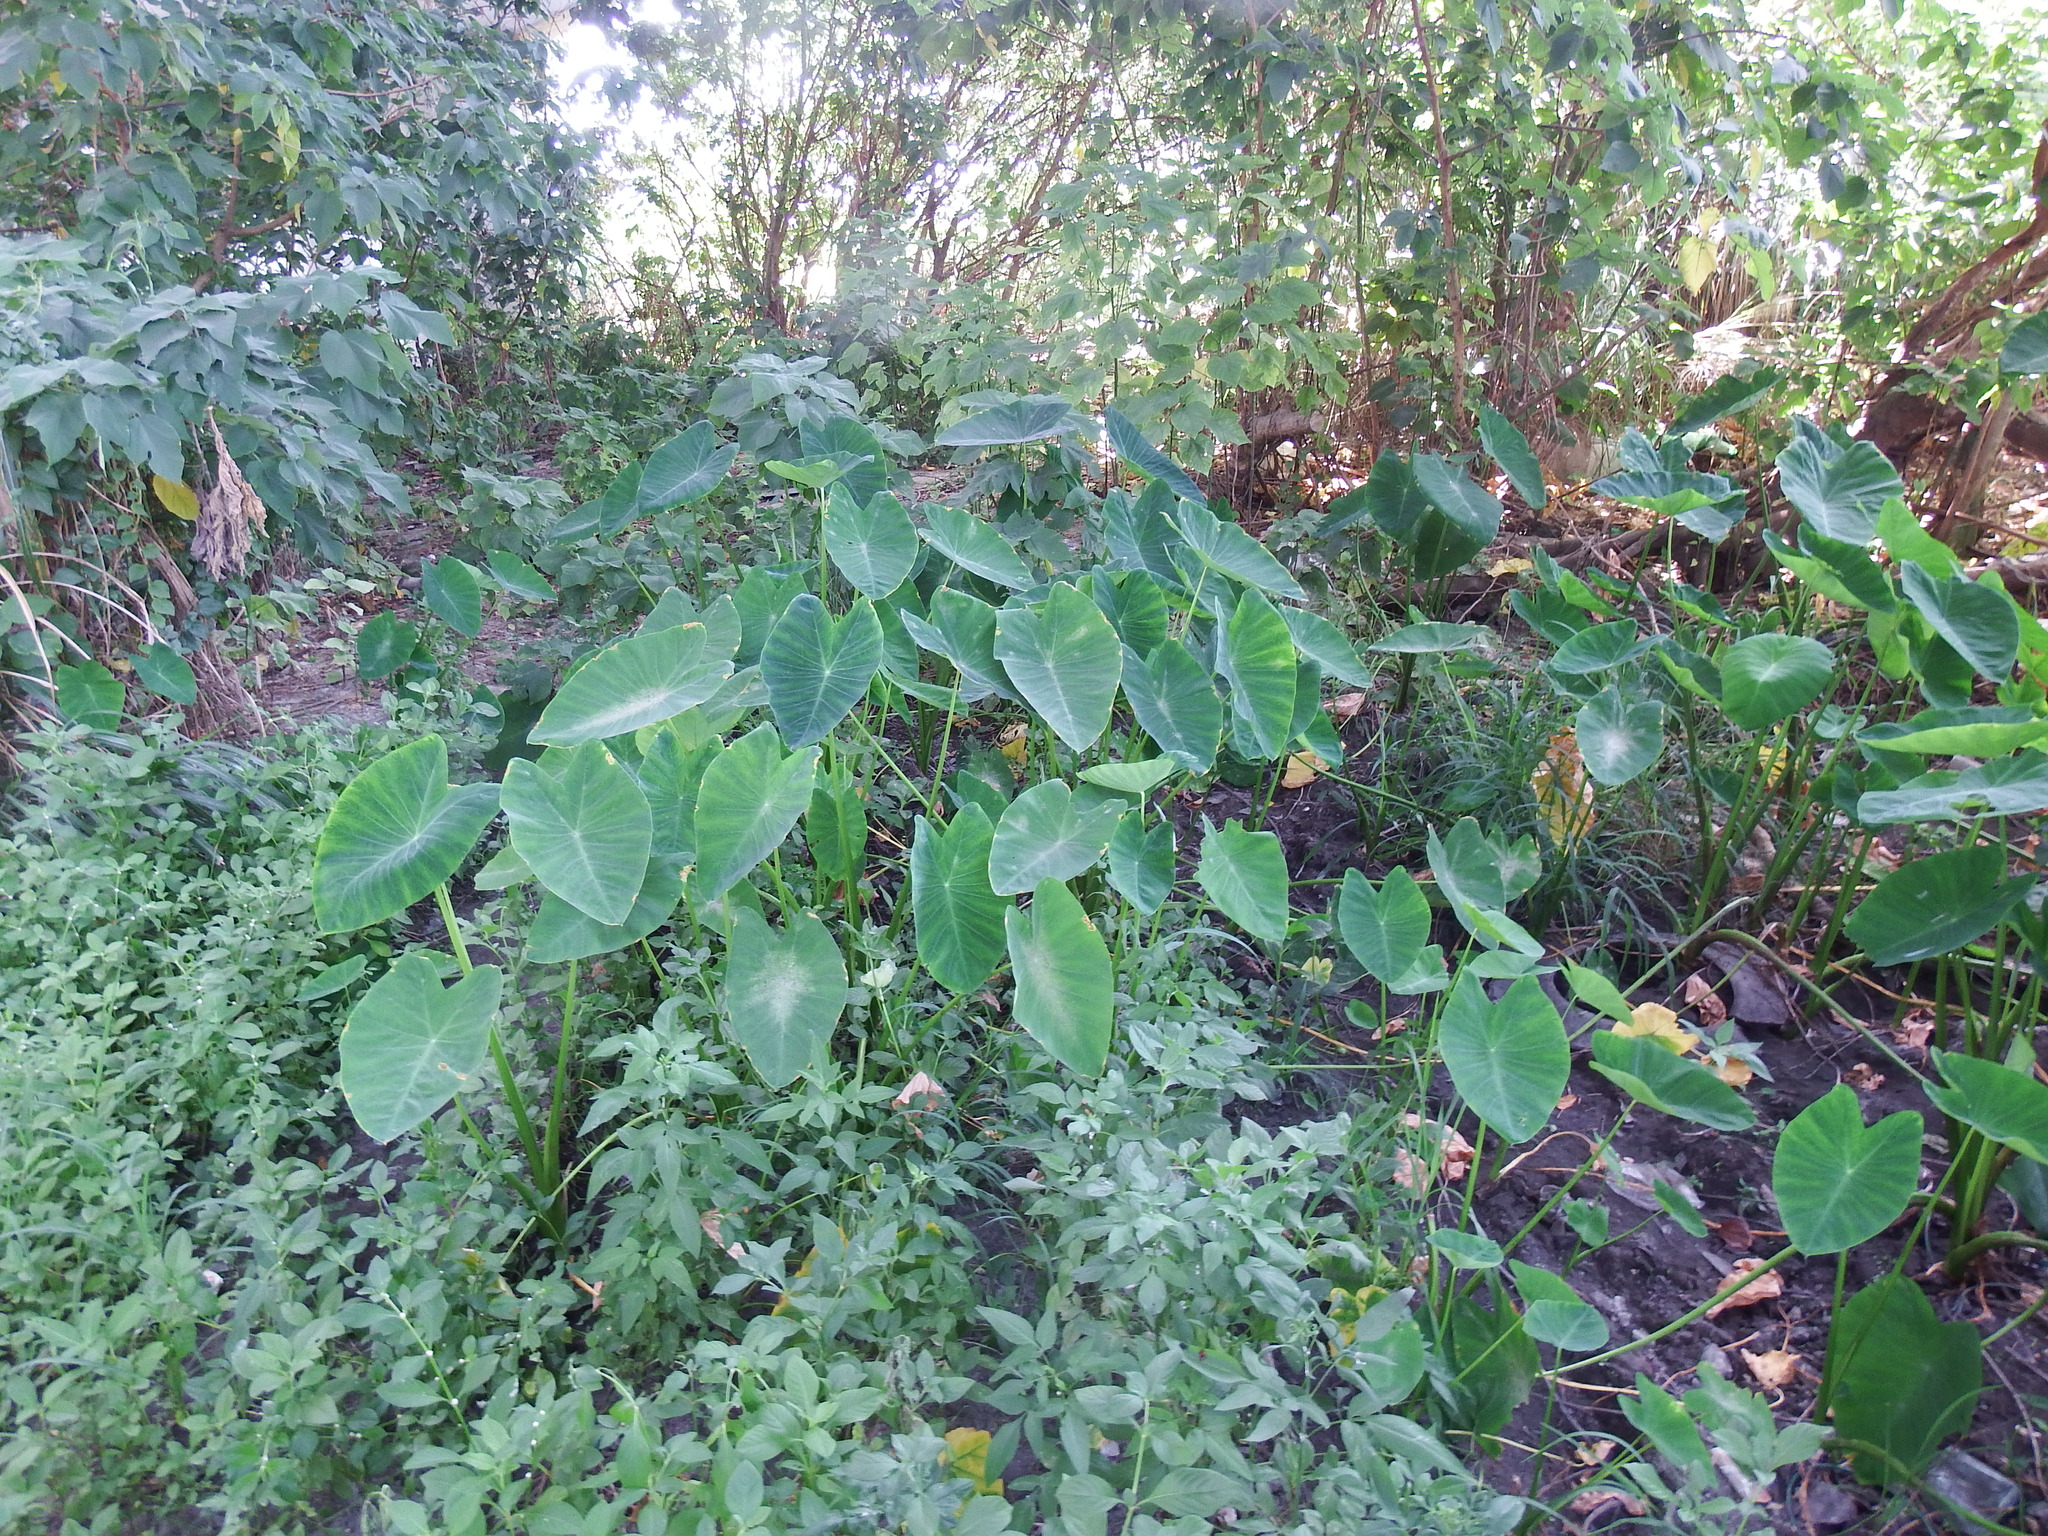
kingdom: Plantae
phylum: Tracheophyta
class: Liliopsida
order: Alismatales
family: Araceae
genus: Colocasia
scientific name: Colocasia esculenta
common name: Taro
